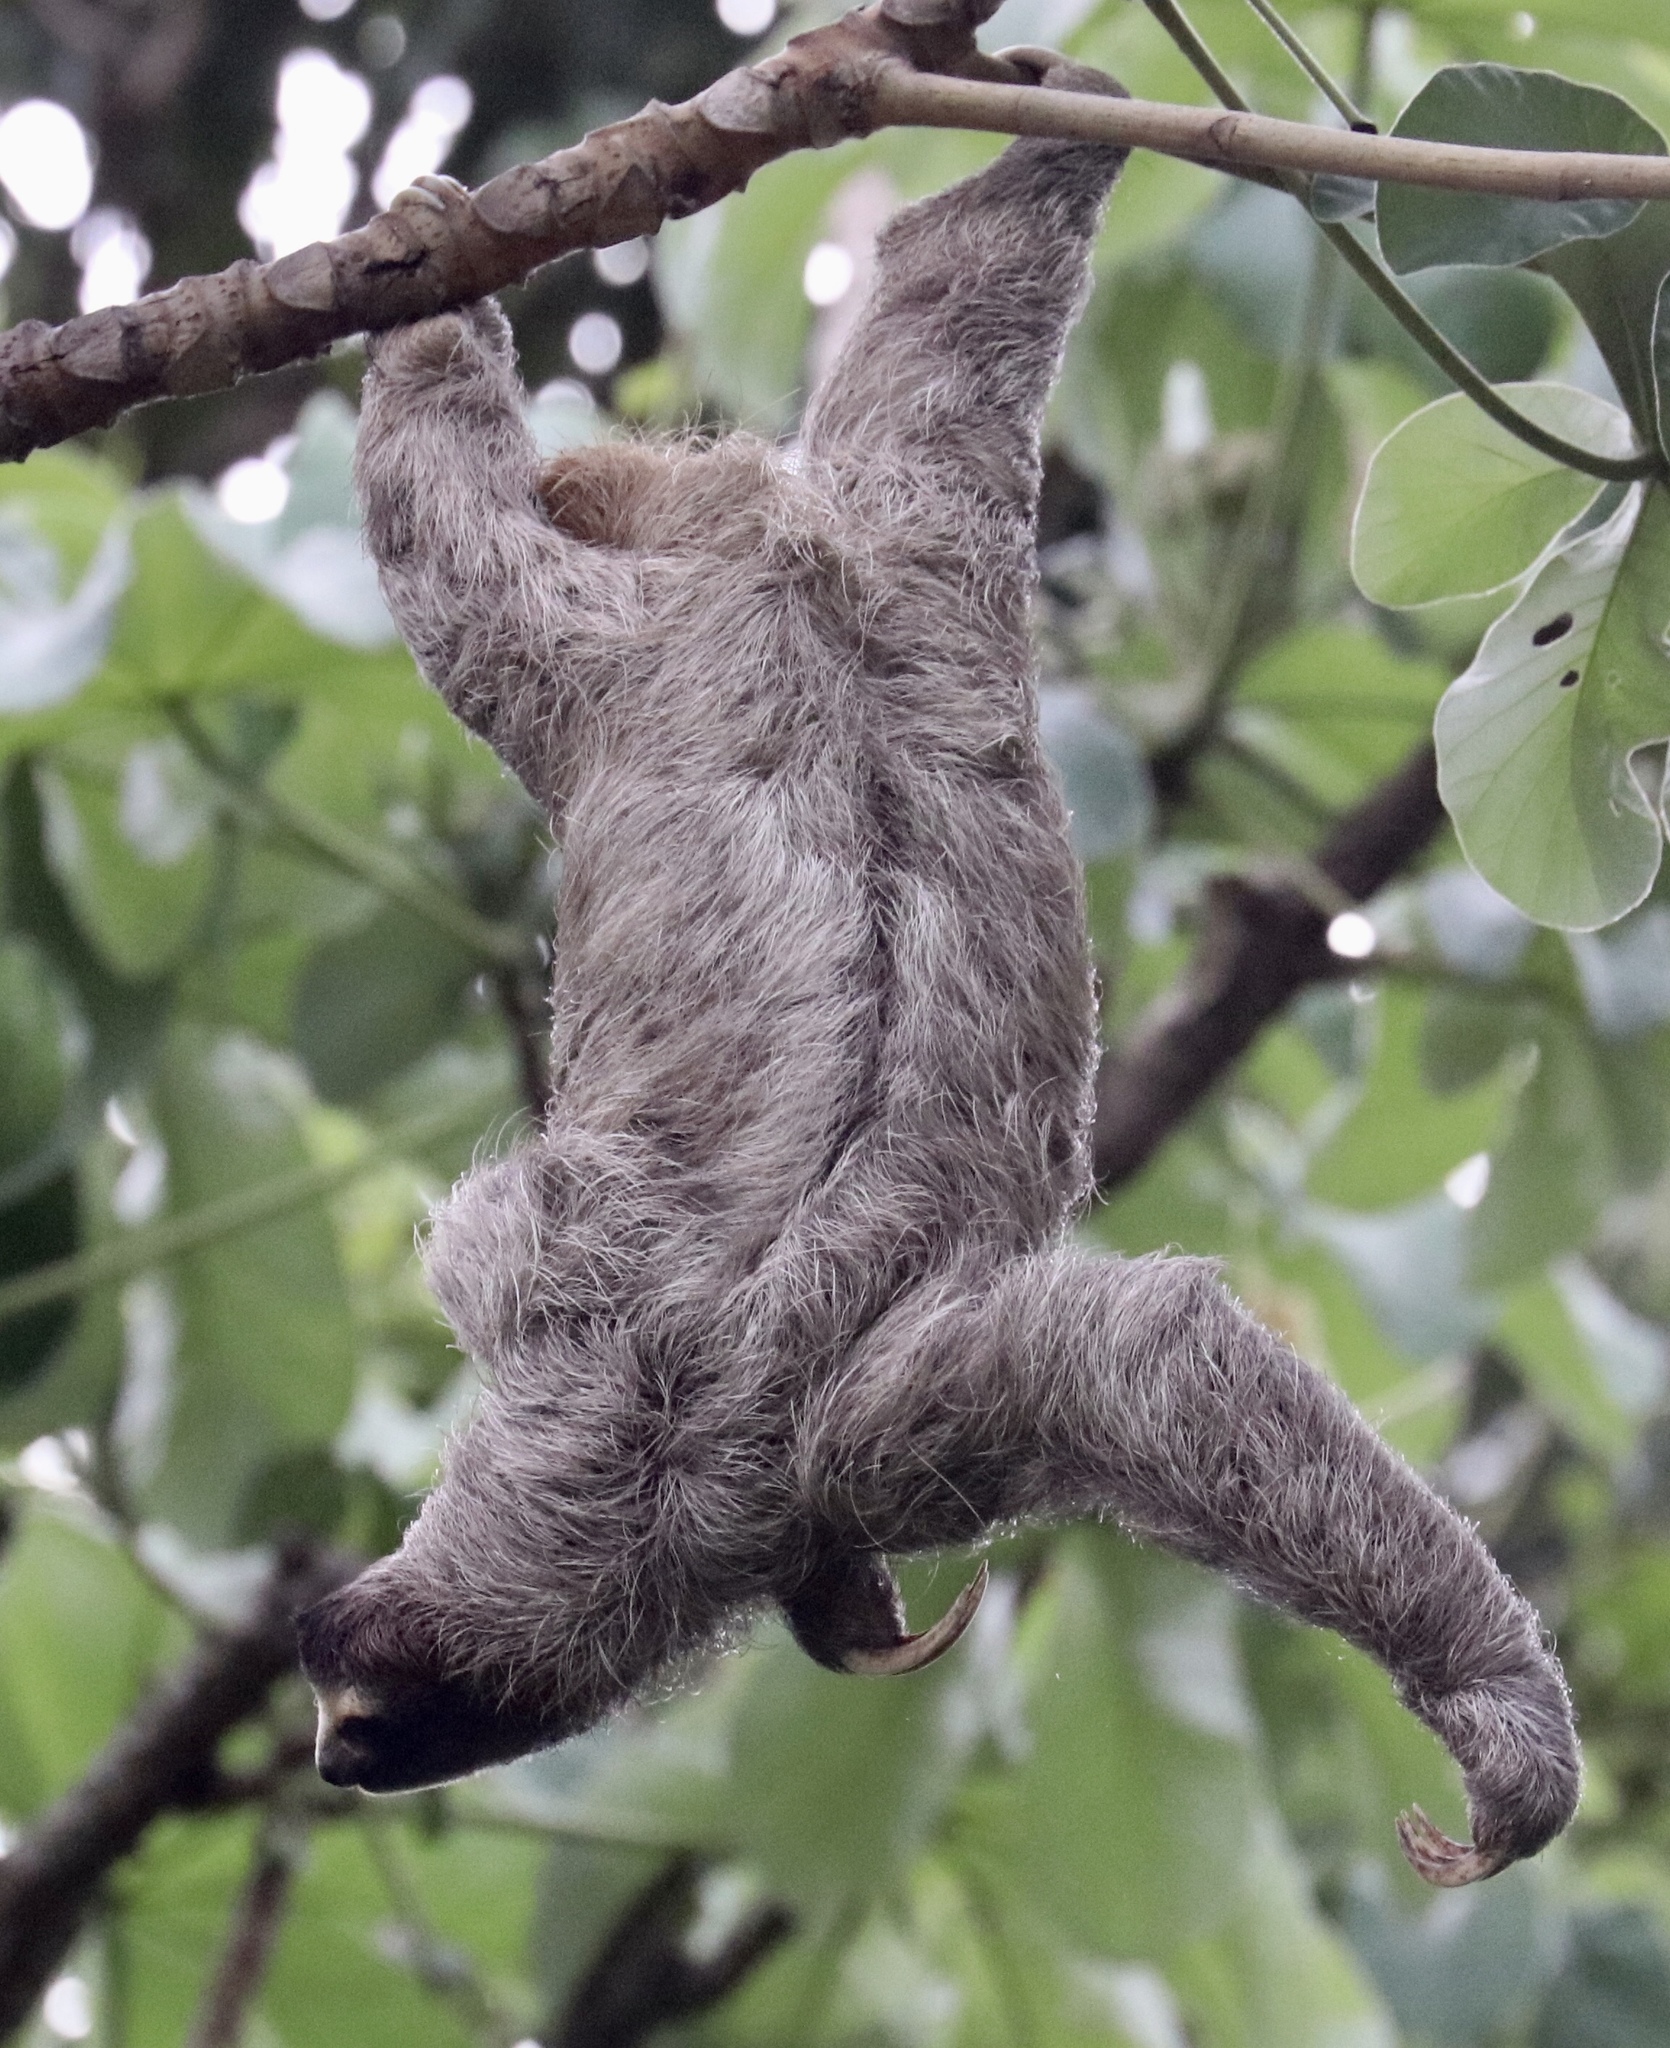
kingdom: Animalia
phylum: Chordata
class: Mammalia
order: Pilosa
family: Bradypodidae
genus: Bradypus
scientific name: Bradypus variegatus
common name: Brown-throated three-toed sloth
